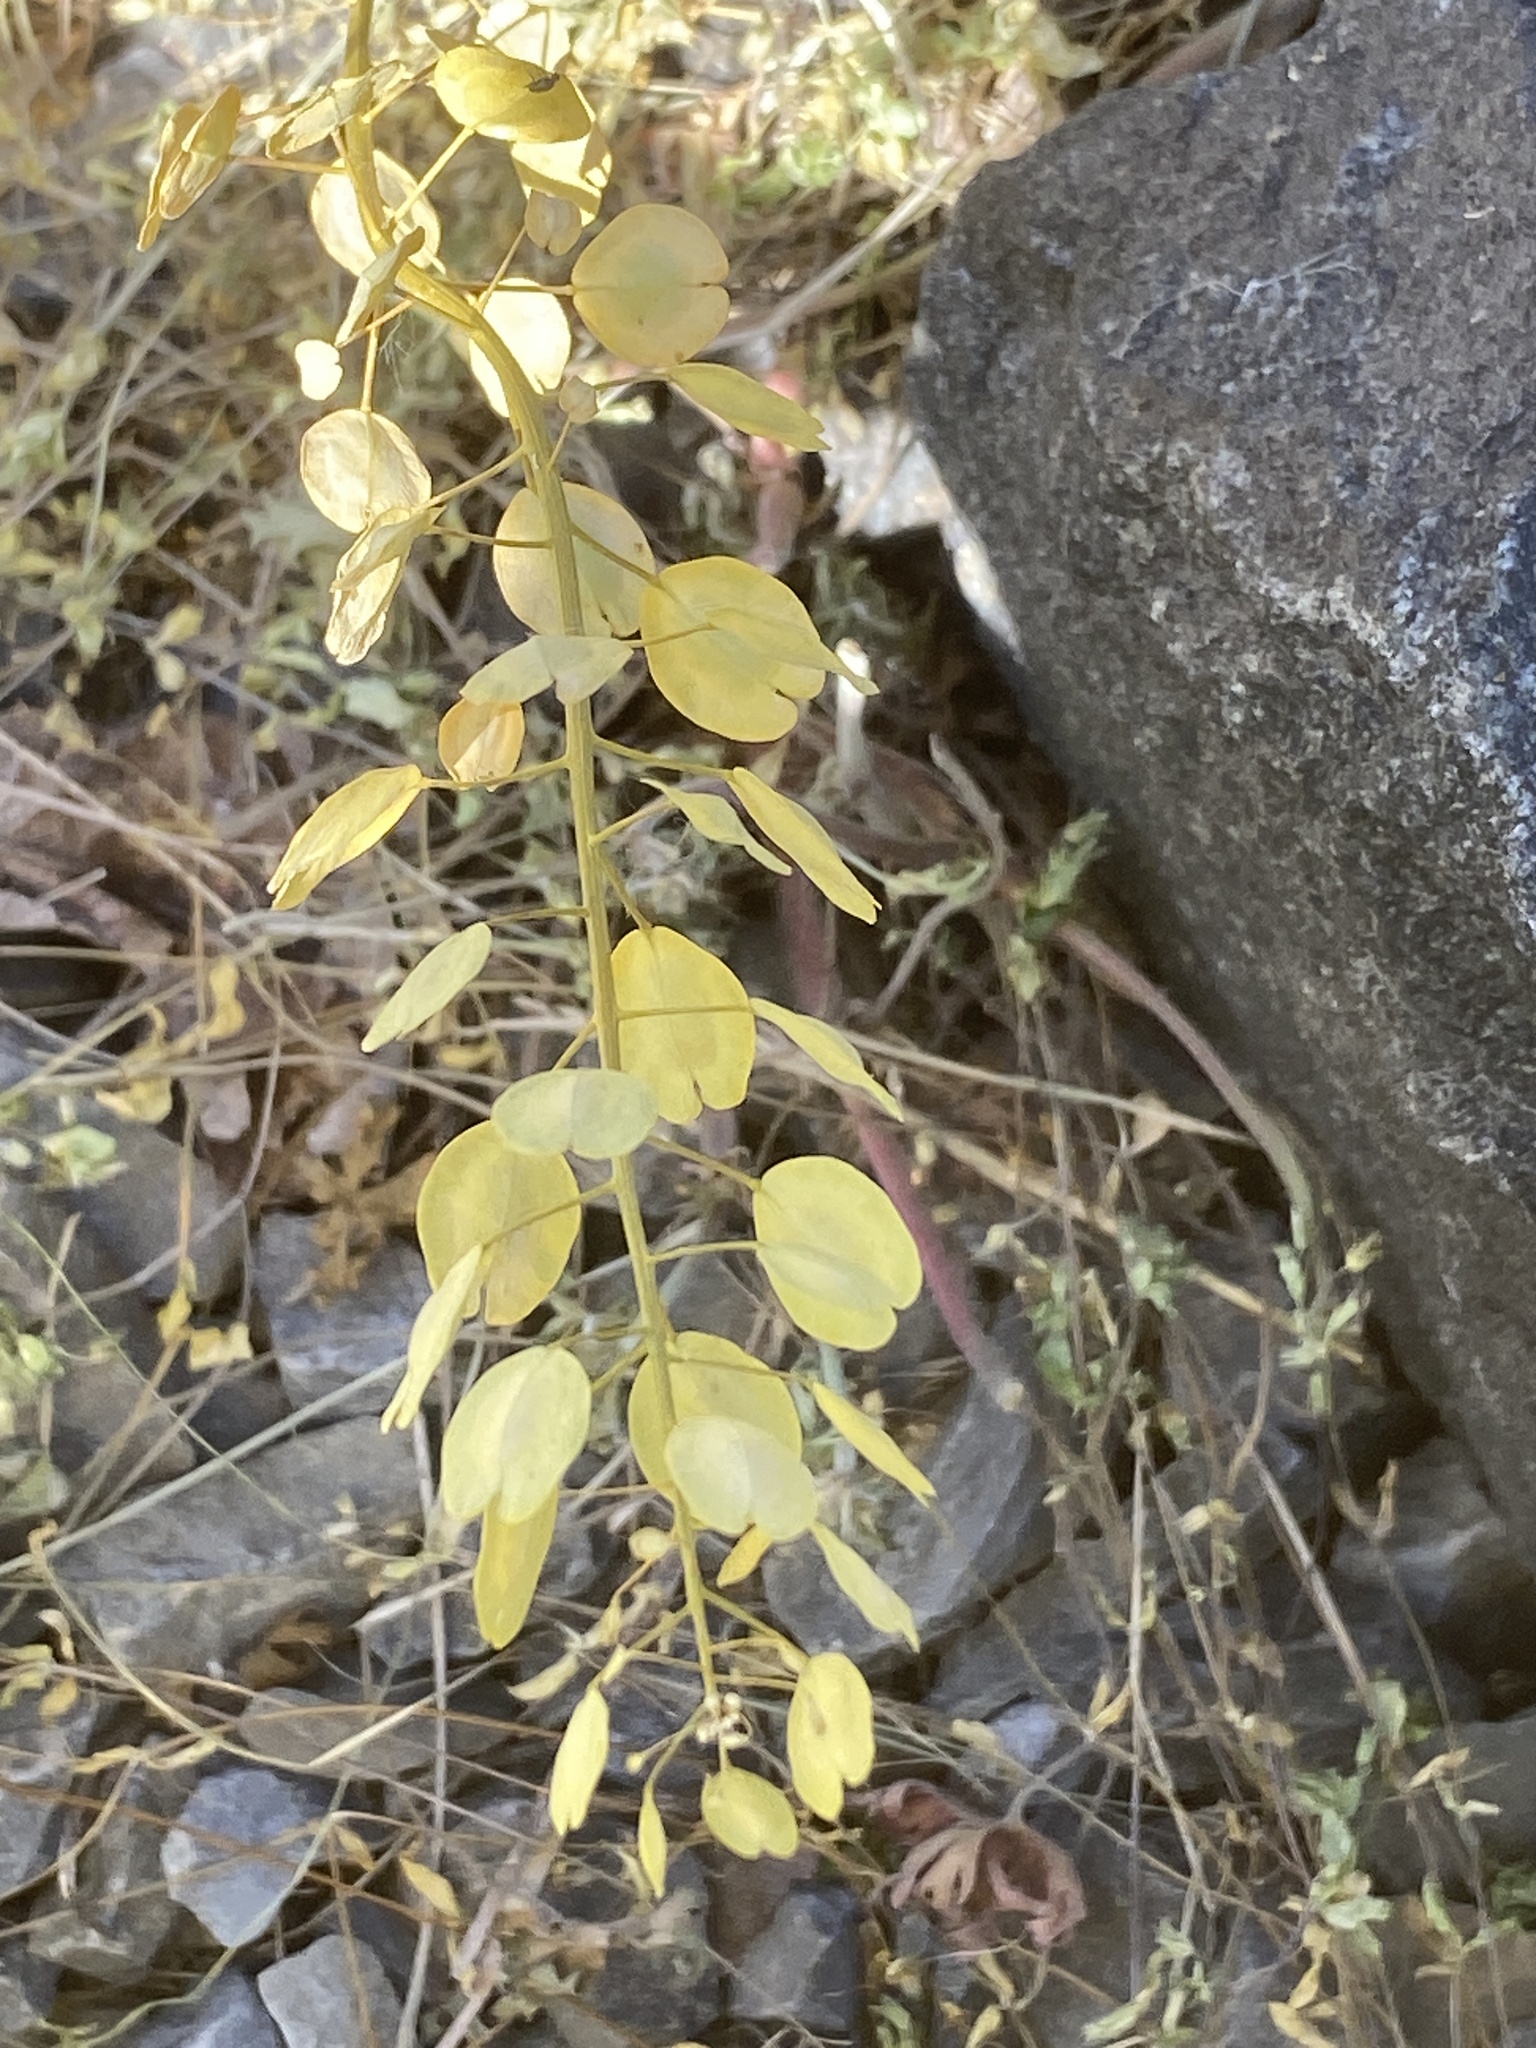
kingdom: Plantae
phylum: Tracheophyta
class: Magnoliopsida
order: Brassicales
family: Brassicaceae
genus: Thlaspi
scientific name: Thlaspi arvense
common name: Field pennycress
